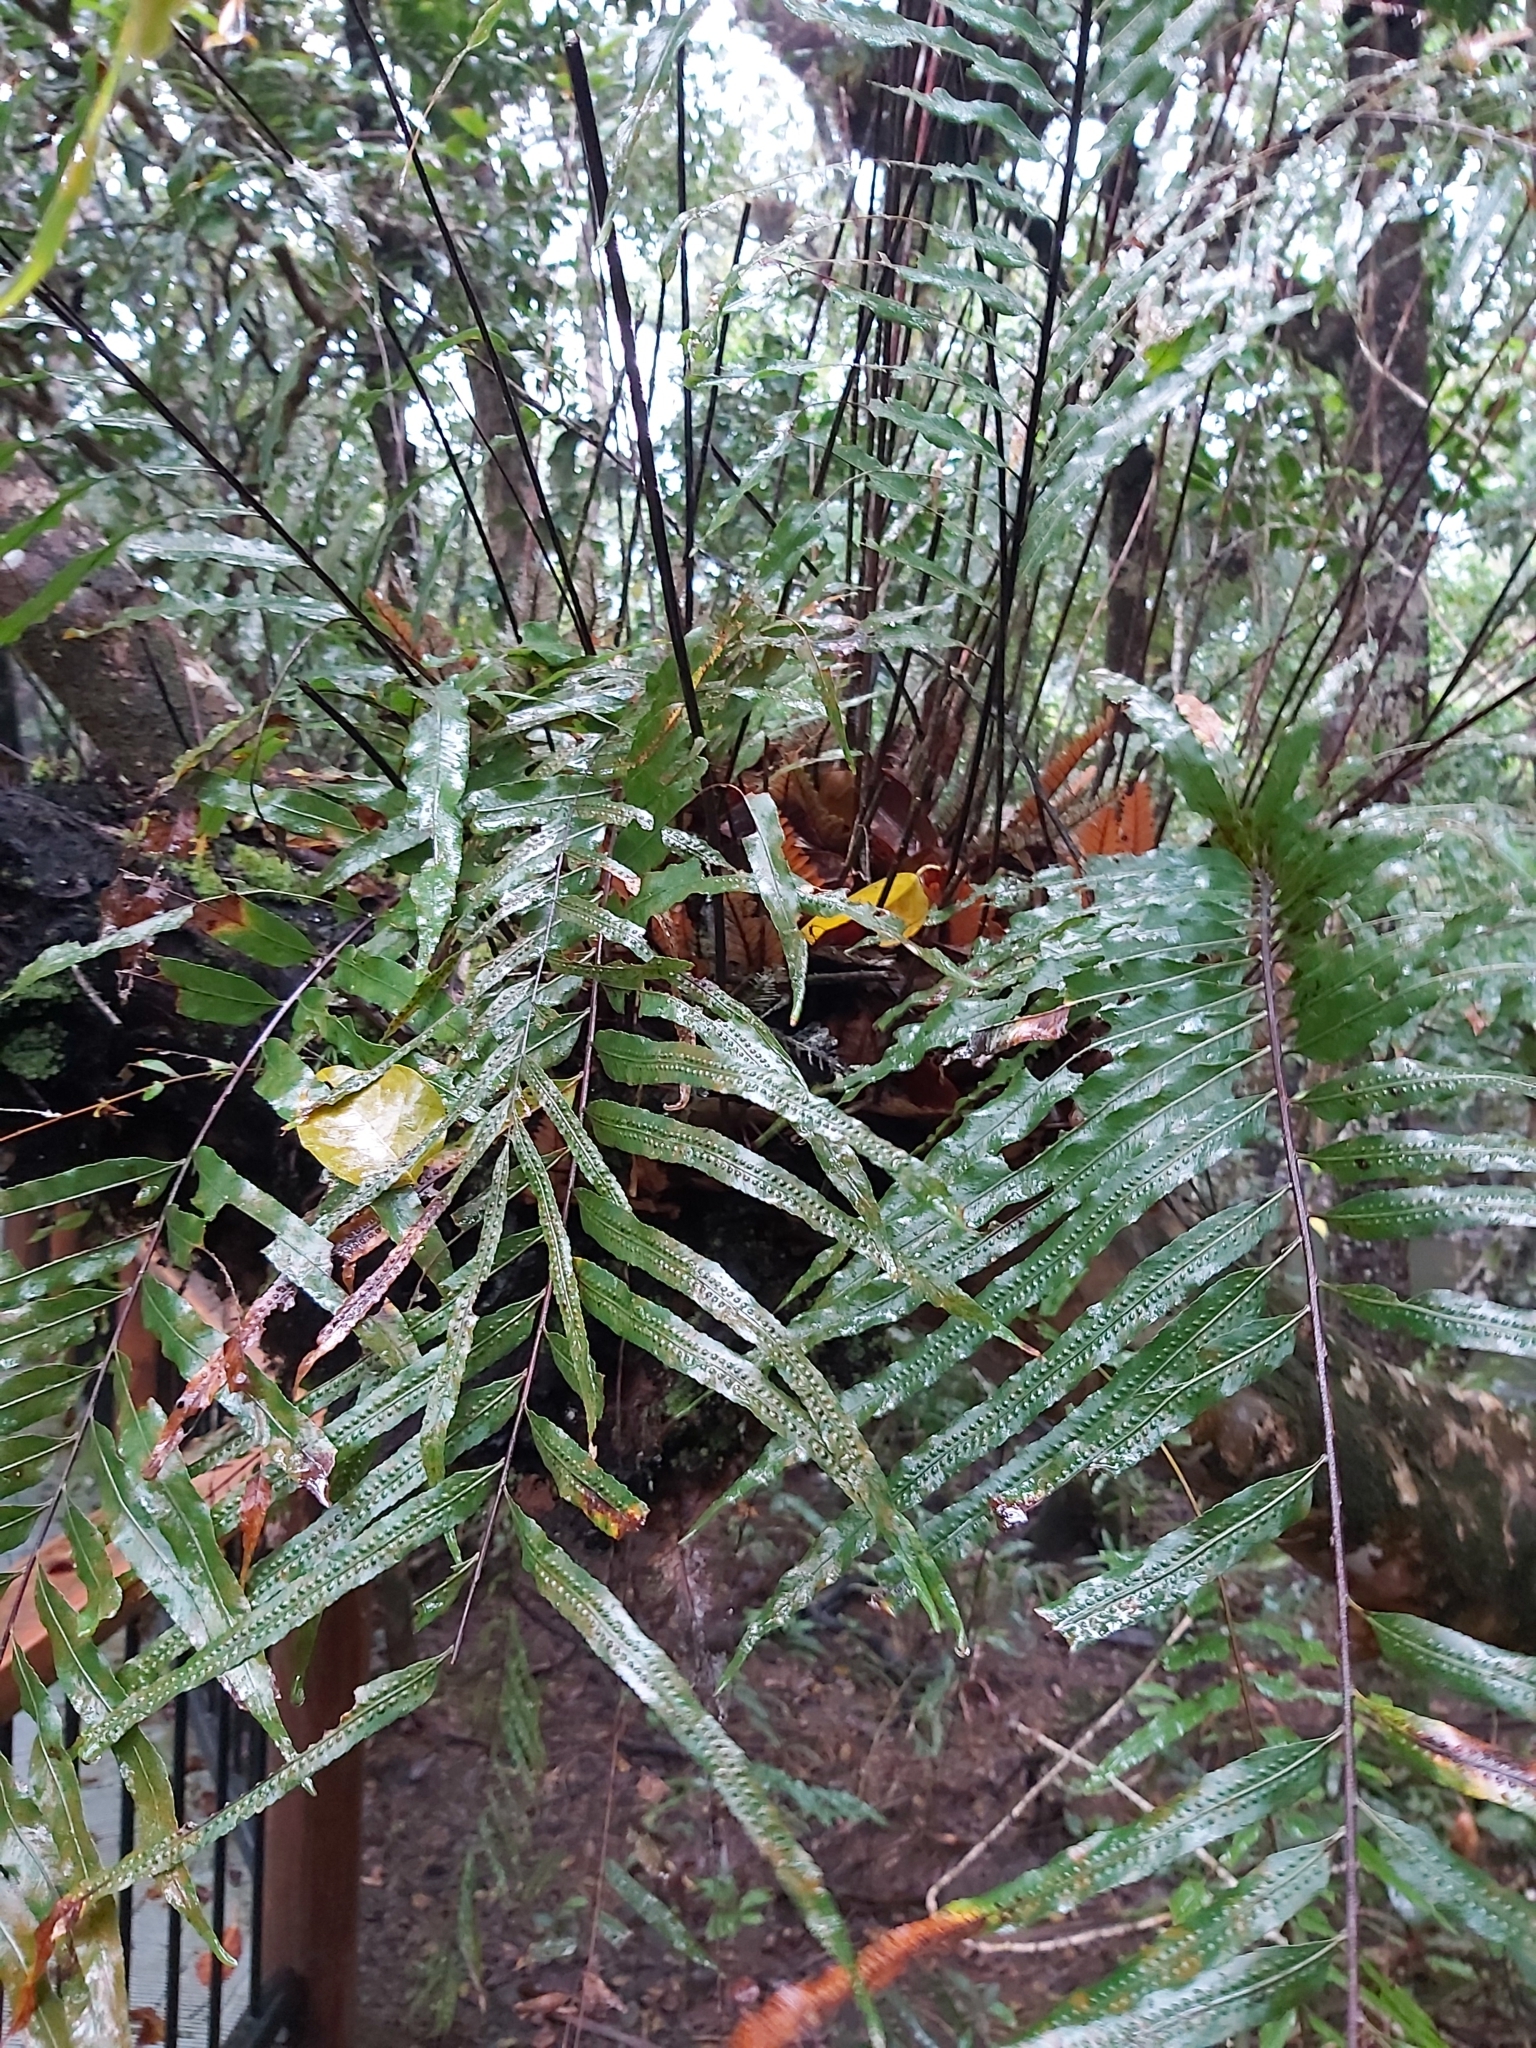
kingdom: Plantae
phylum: Tracheophyta
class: Polypodiopsida
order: Polypodiales
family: Polypodiaceae
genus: Drynaria
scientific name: Drynaria rigidula
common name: Basket fern
